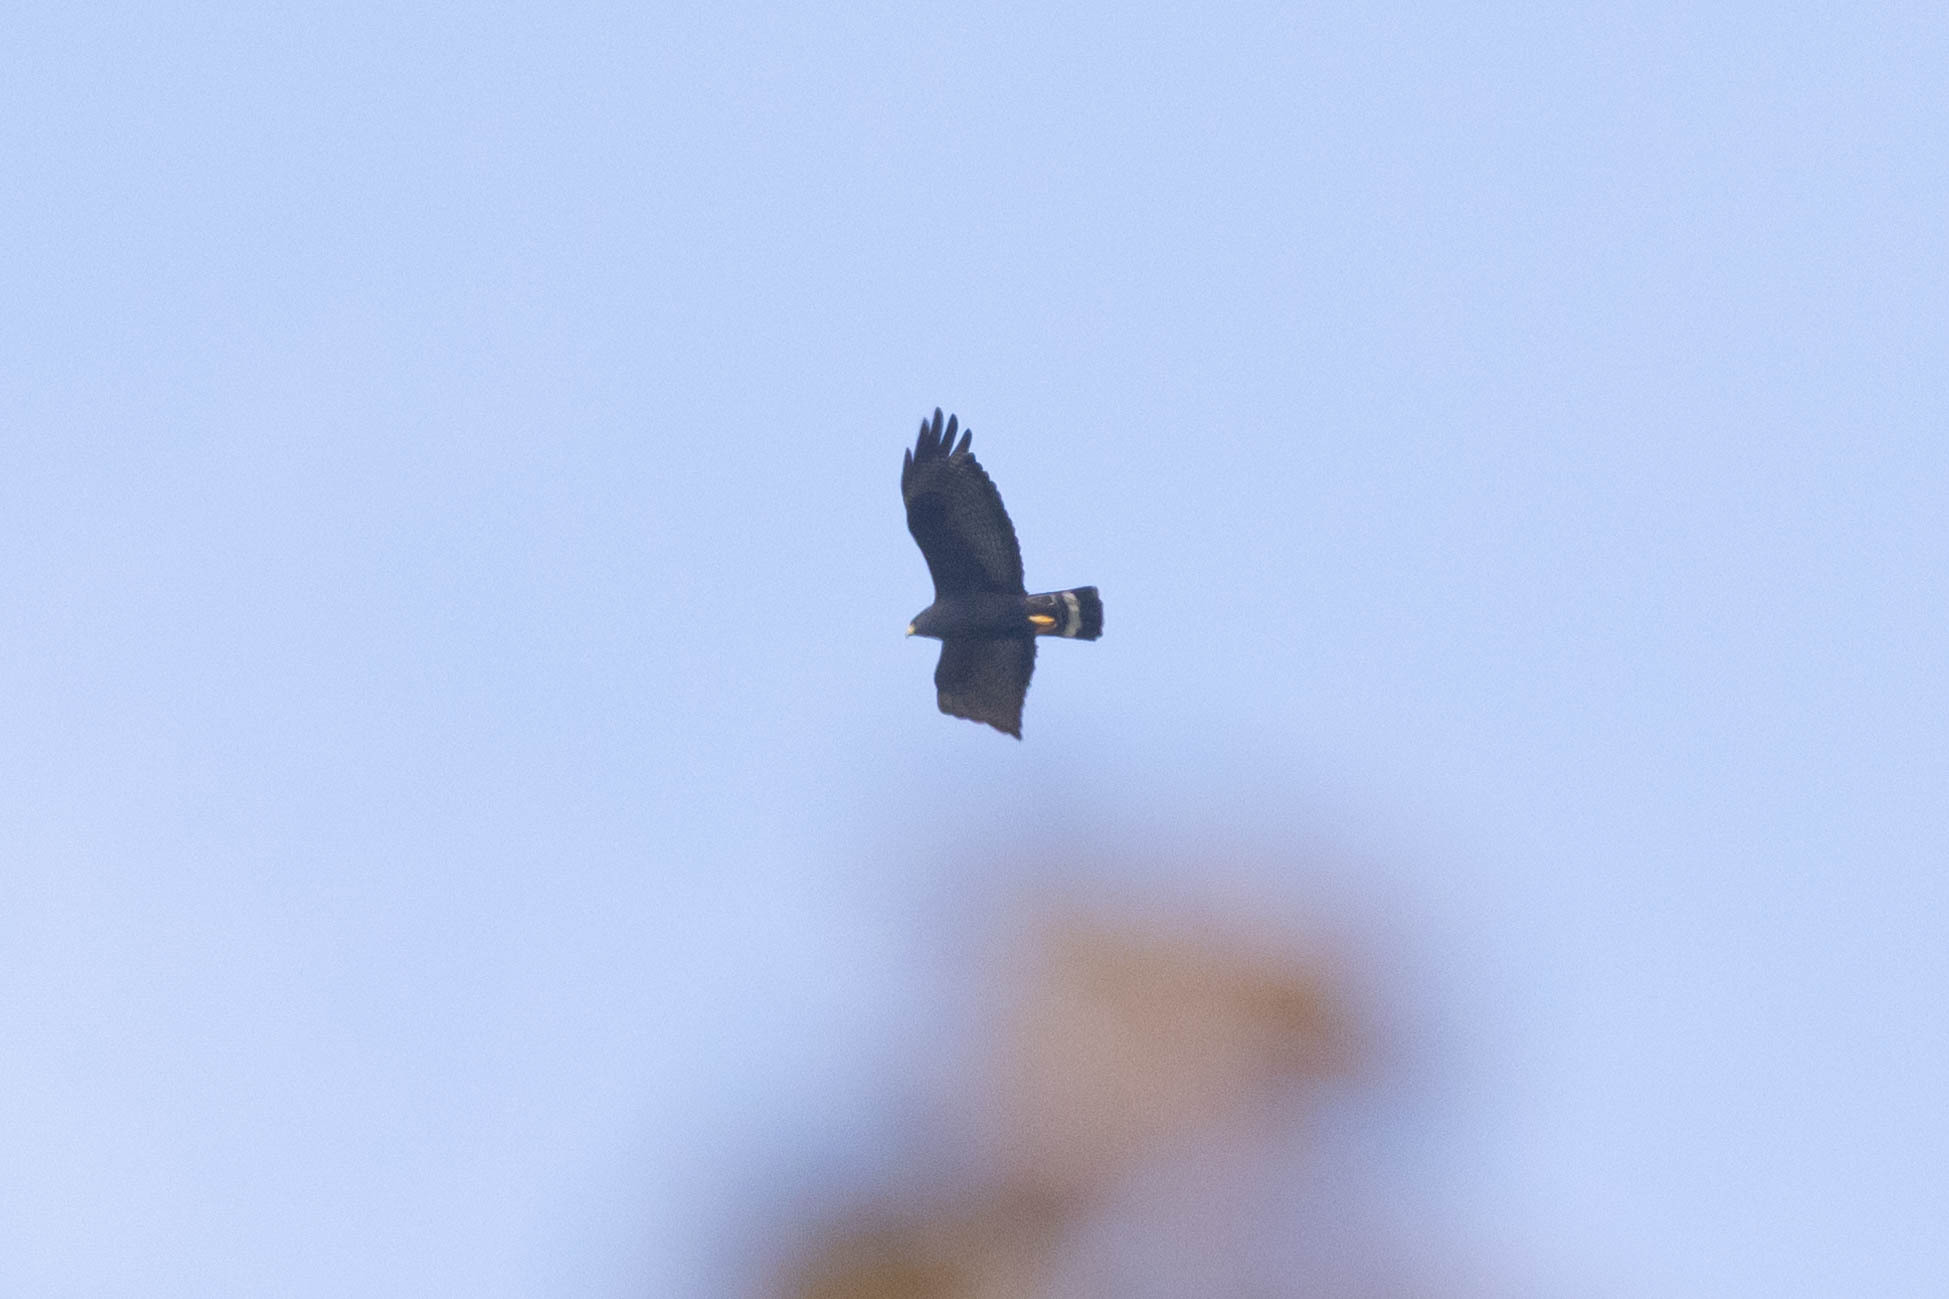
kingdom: Animalia
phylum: Chordata
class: Aves
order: Accipitriformes
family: Accipitridae
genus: Buteo
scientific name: Buteo albonotatus
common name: Zone-tailed hawk
